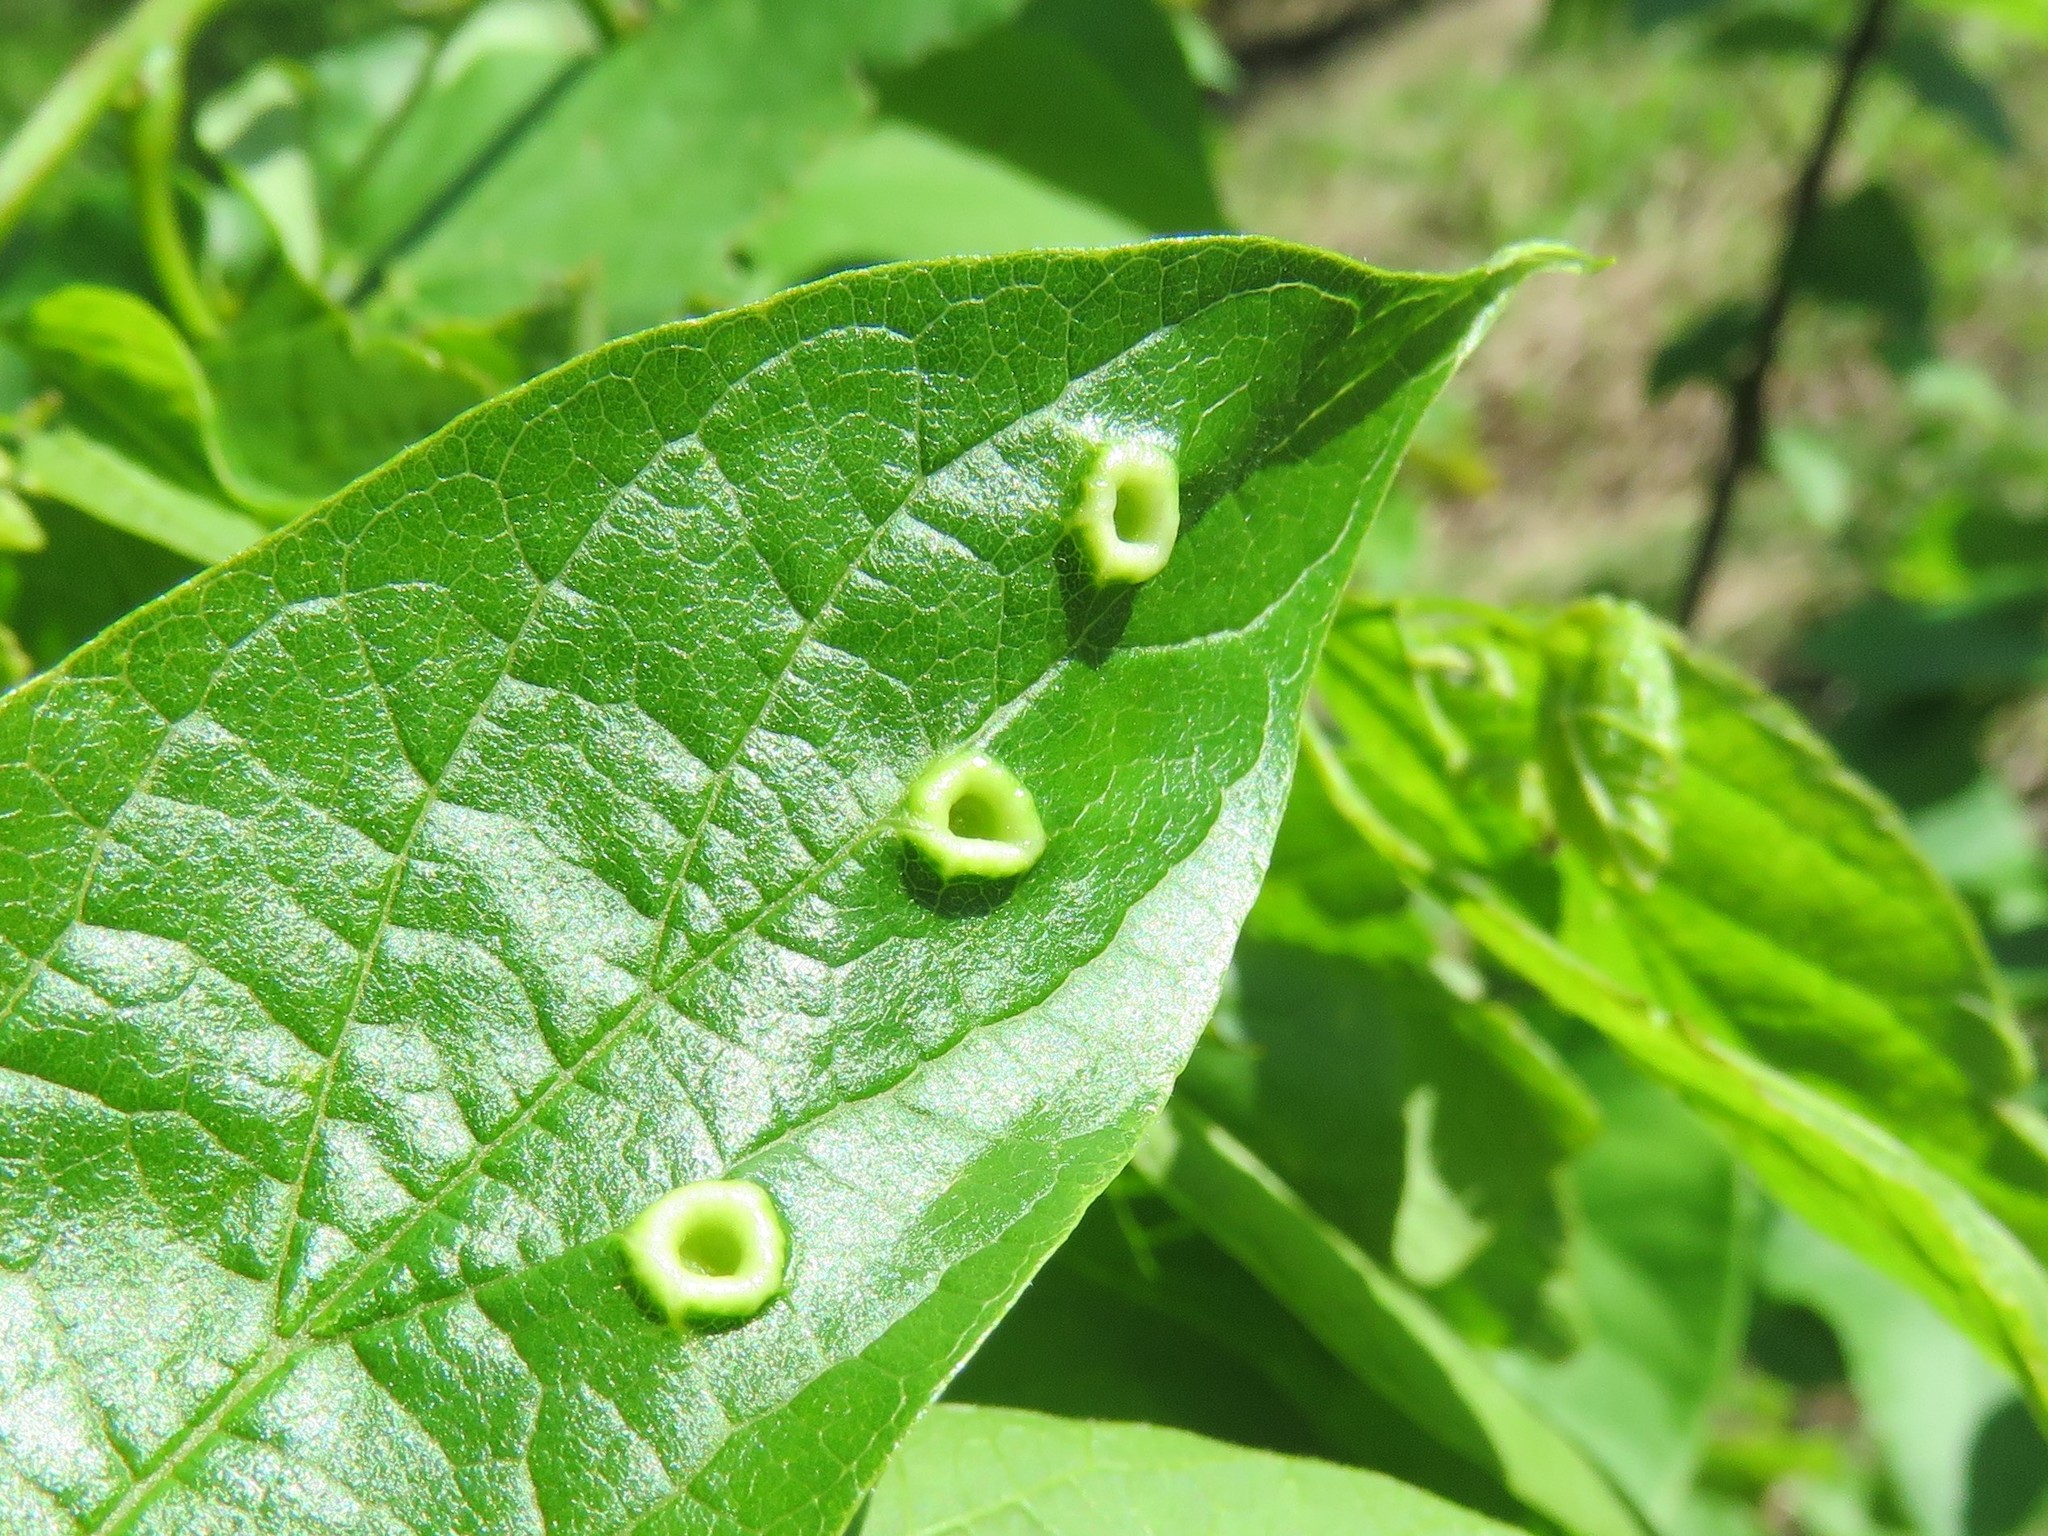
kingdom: Animalia
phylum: Arthropoda
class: Insecta
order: Hemiptera
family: Aphalaridae
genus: Pachypsylla
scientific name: Pachypsylla celtidismamma
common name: Hackberry nipplegall psyllid
